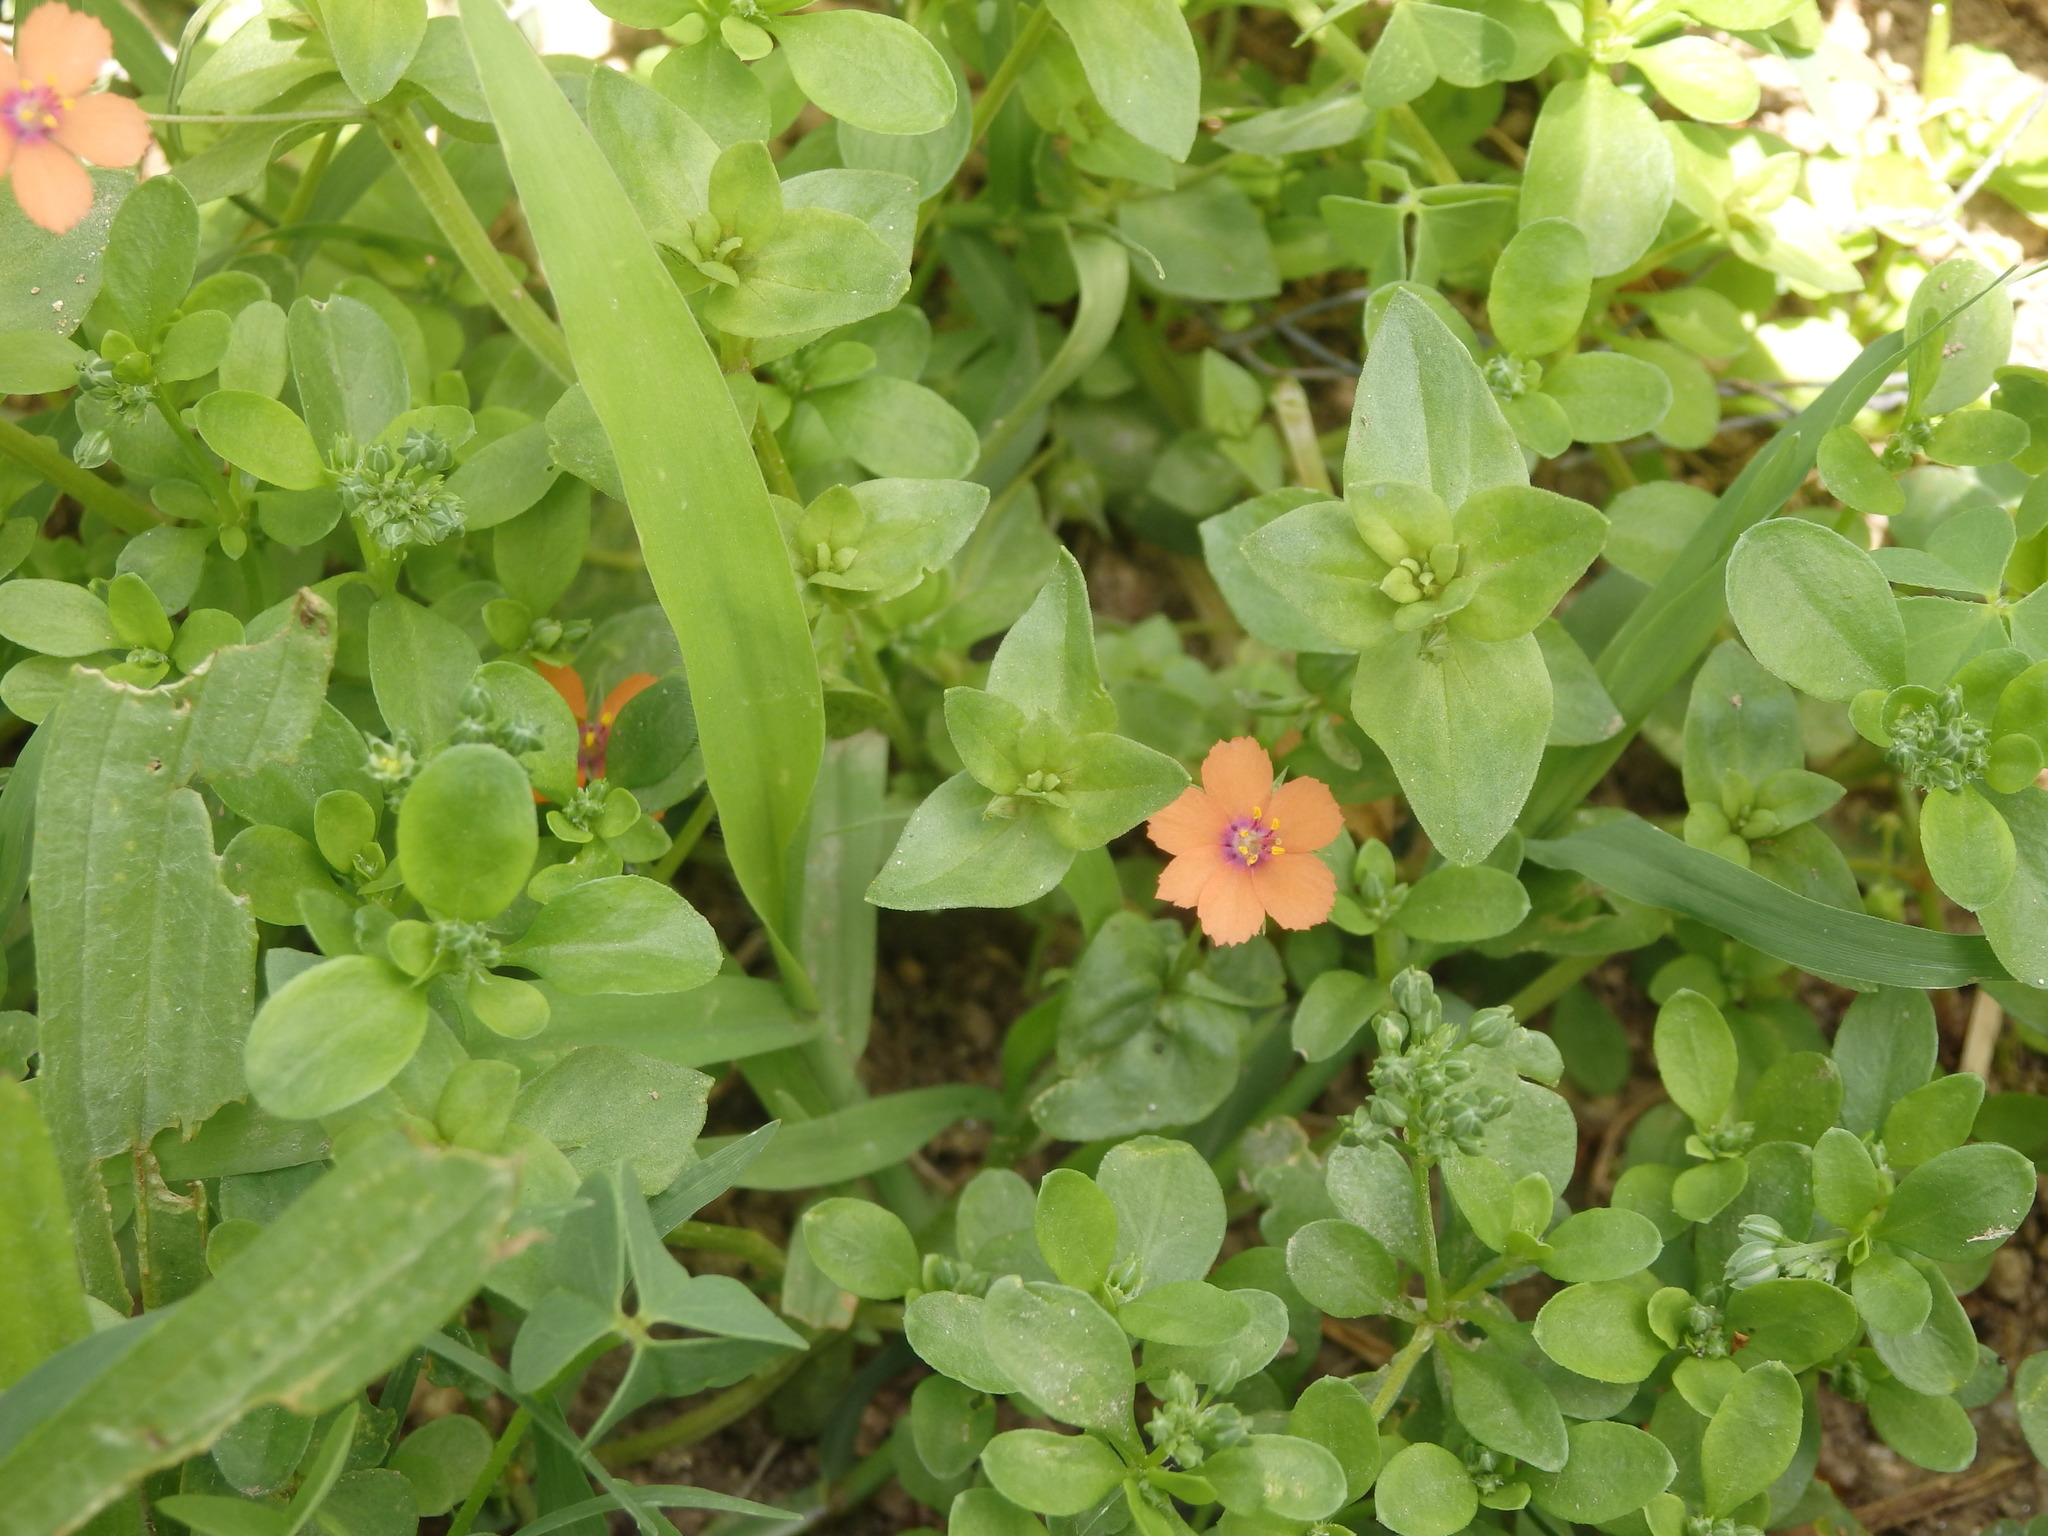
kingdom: Plantae
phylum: Tracheophyta
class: Magnoliopsida
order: Ericales
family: Primulaceae
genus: Lysimachia
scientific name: Lysimachia arvensis
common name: Scarlet pimpernel
